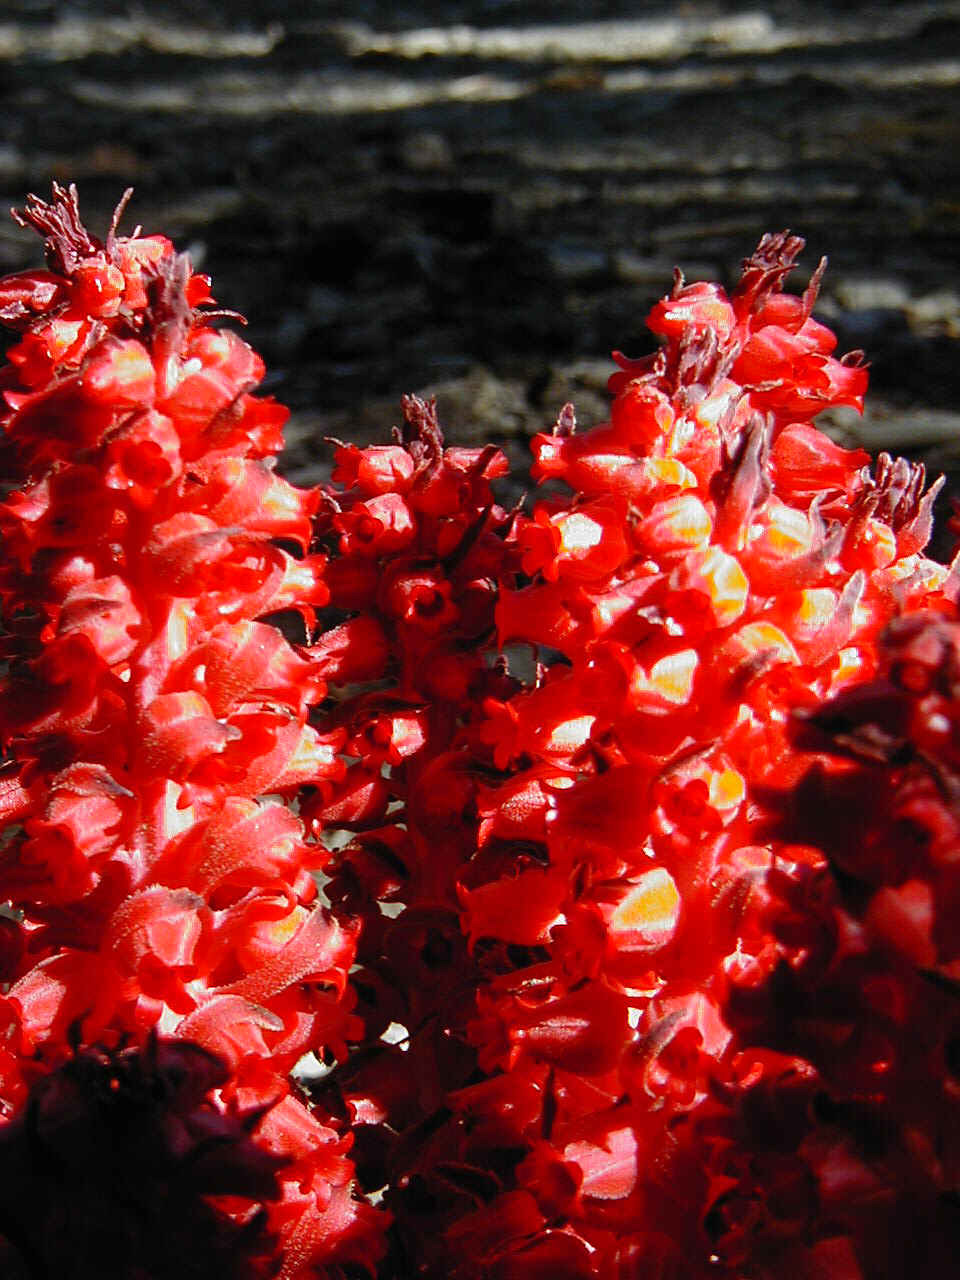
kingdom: Plantae
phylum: Tracheophyta
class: Magnoliopsida
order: Ericales
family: Ericaceae
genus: Sarcodes
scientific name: Sarcodes sanguinea
